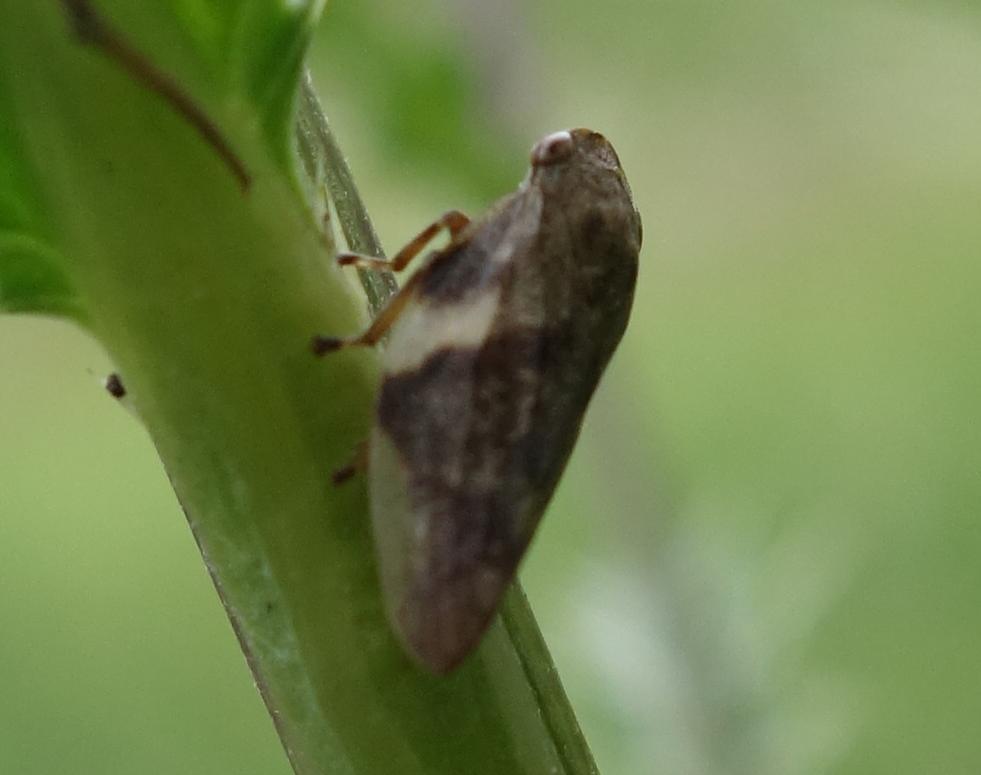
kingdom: Animalia
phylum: Arthropoda
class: Insecta
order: Hemiptera
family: Aphrophoridae
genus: Aphrophora
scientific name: Aphrophora alni
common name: European alder spittlebug
